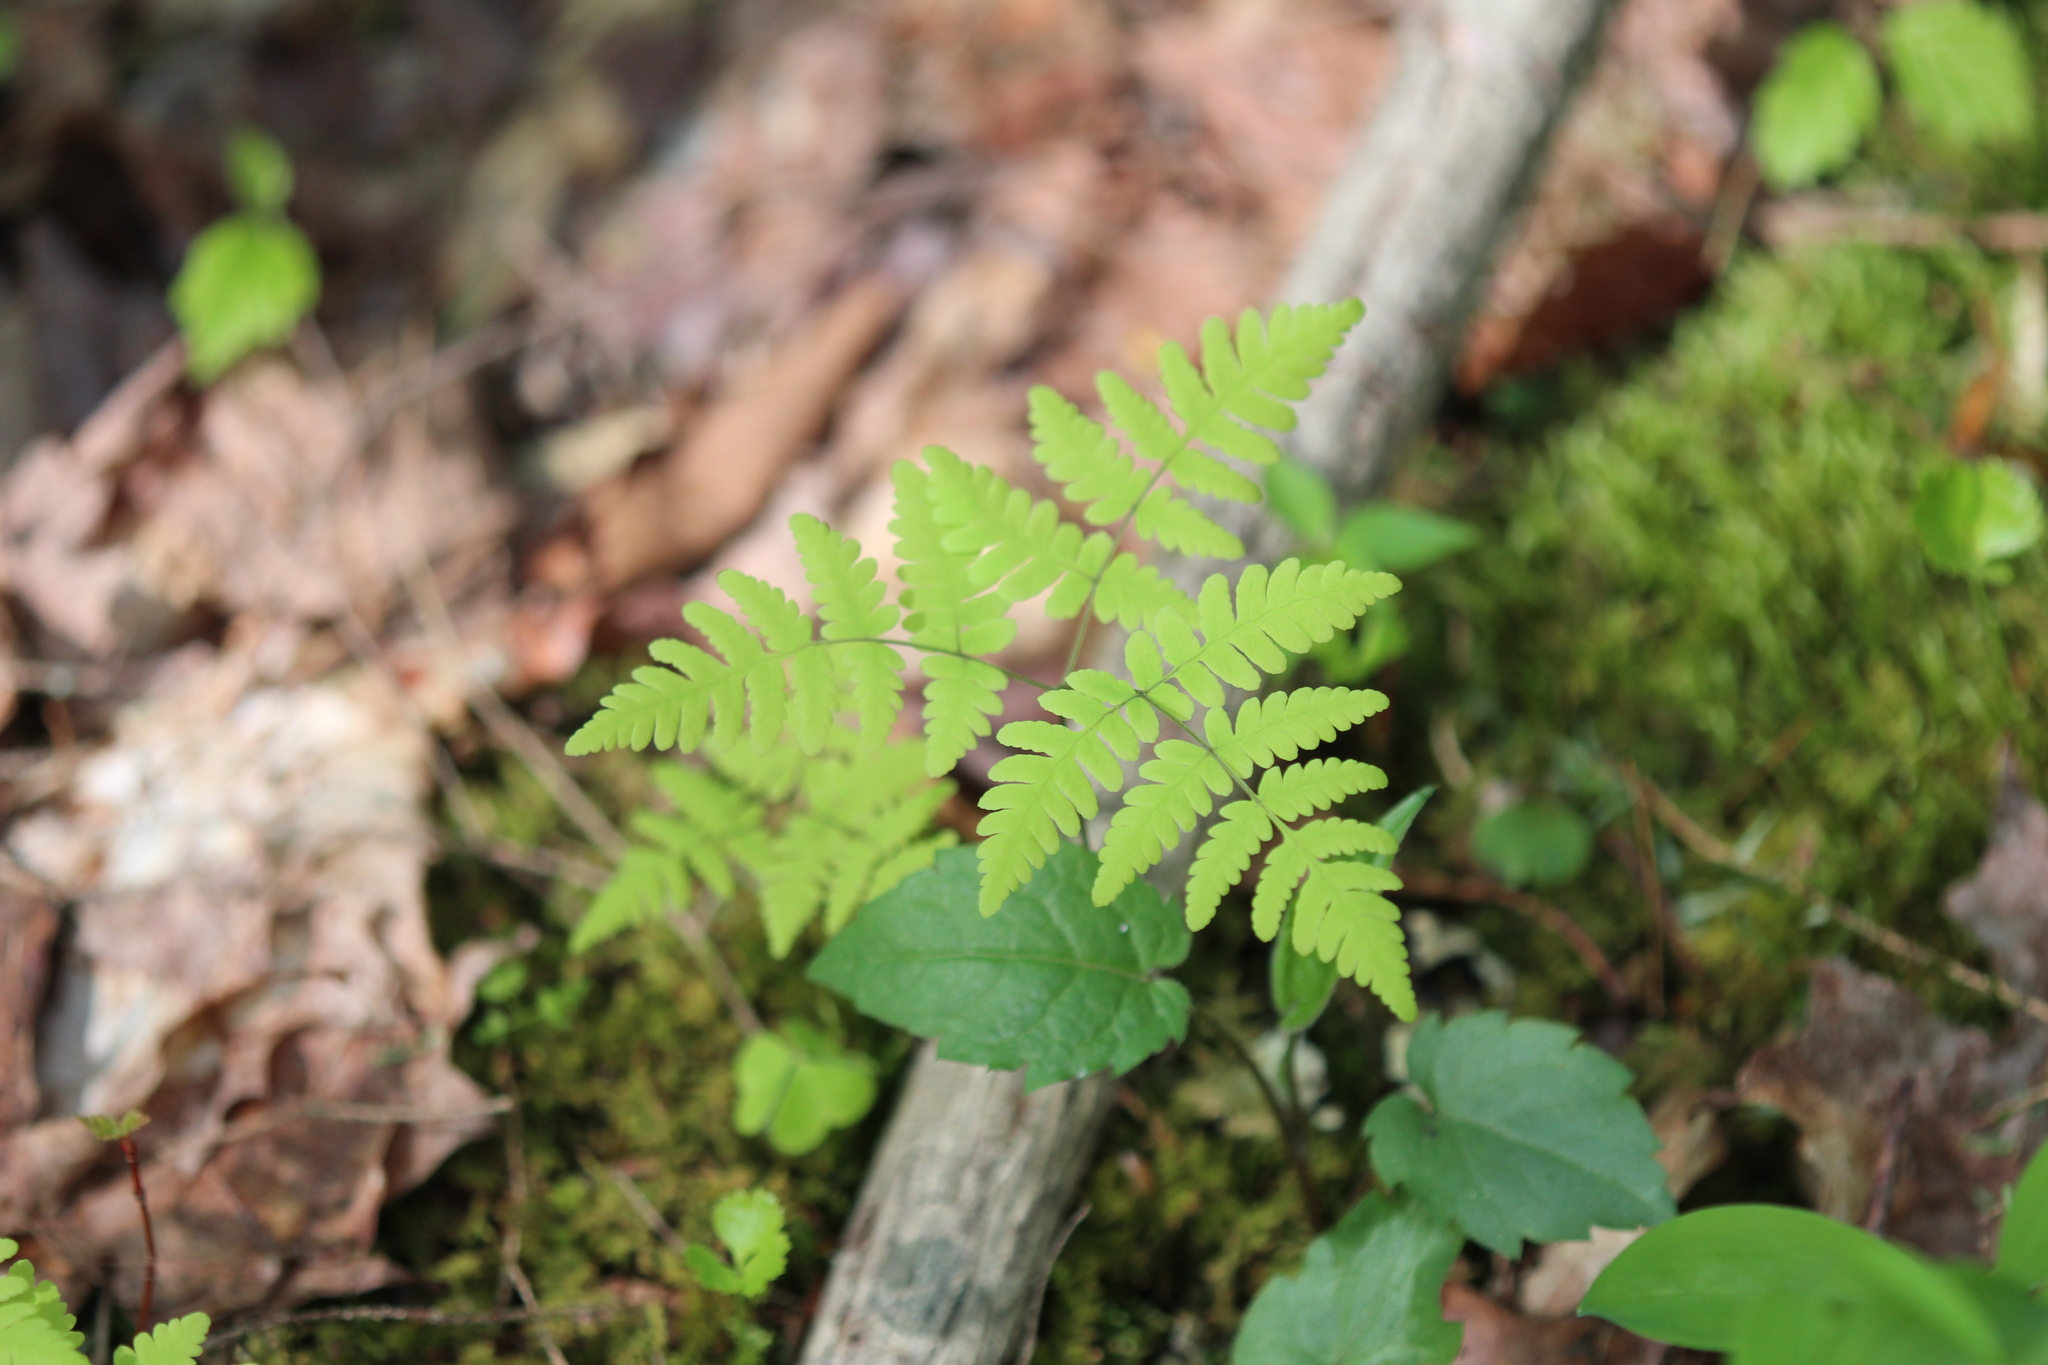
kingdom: Plantae
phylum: Tracheophyta
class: Polypodiopsida
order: Polypodiales
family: Cystopteridaceae
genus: Gymnocarpium
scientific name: Gymnocarpium dryopteris
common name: Oak fern
